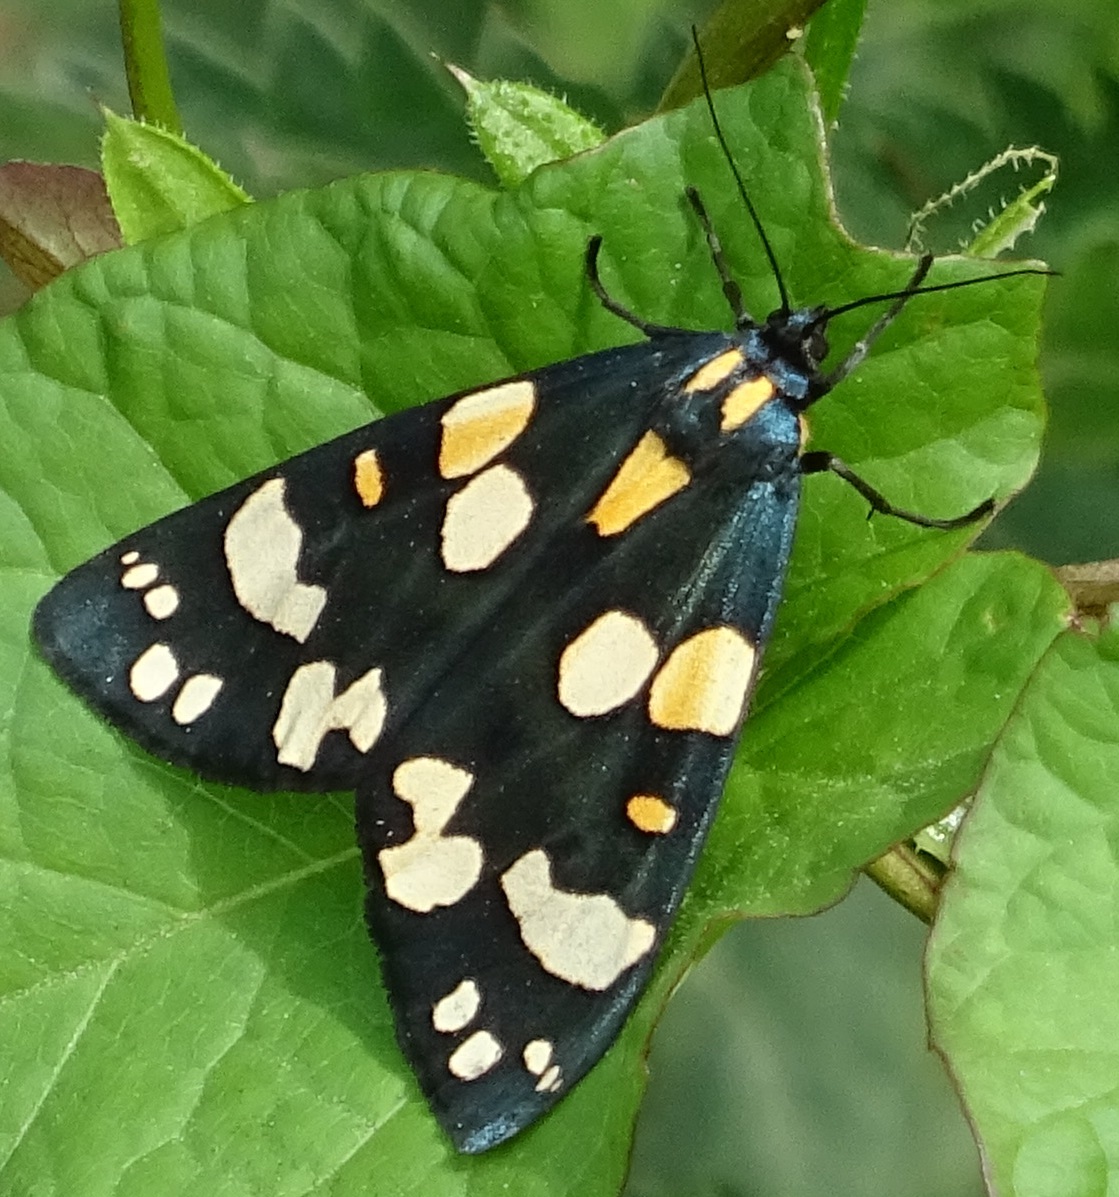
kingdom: Animalia
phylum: Arthropoda
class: Insecta
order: Lepidoptera
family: Erebidae
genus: Callimorpha
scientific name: Callimorpha dominula
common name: Scarlet tiger
